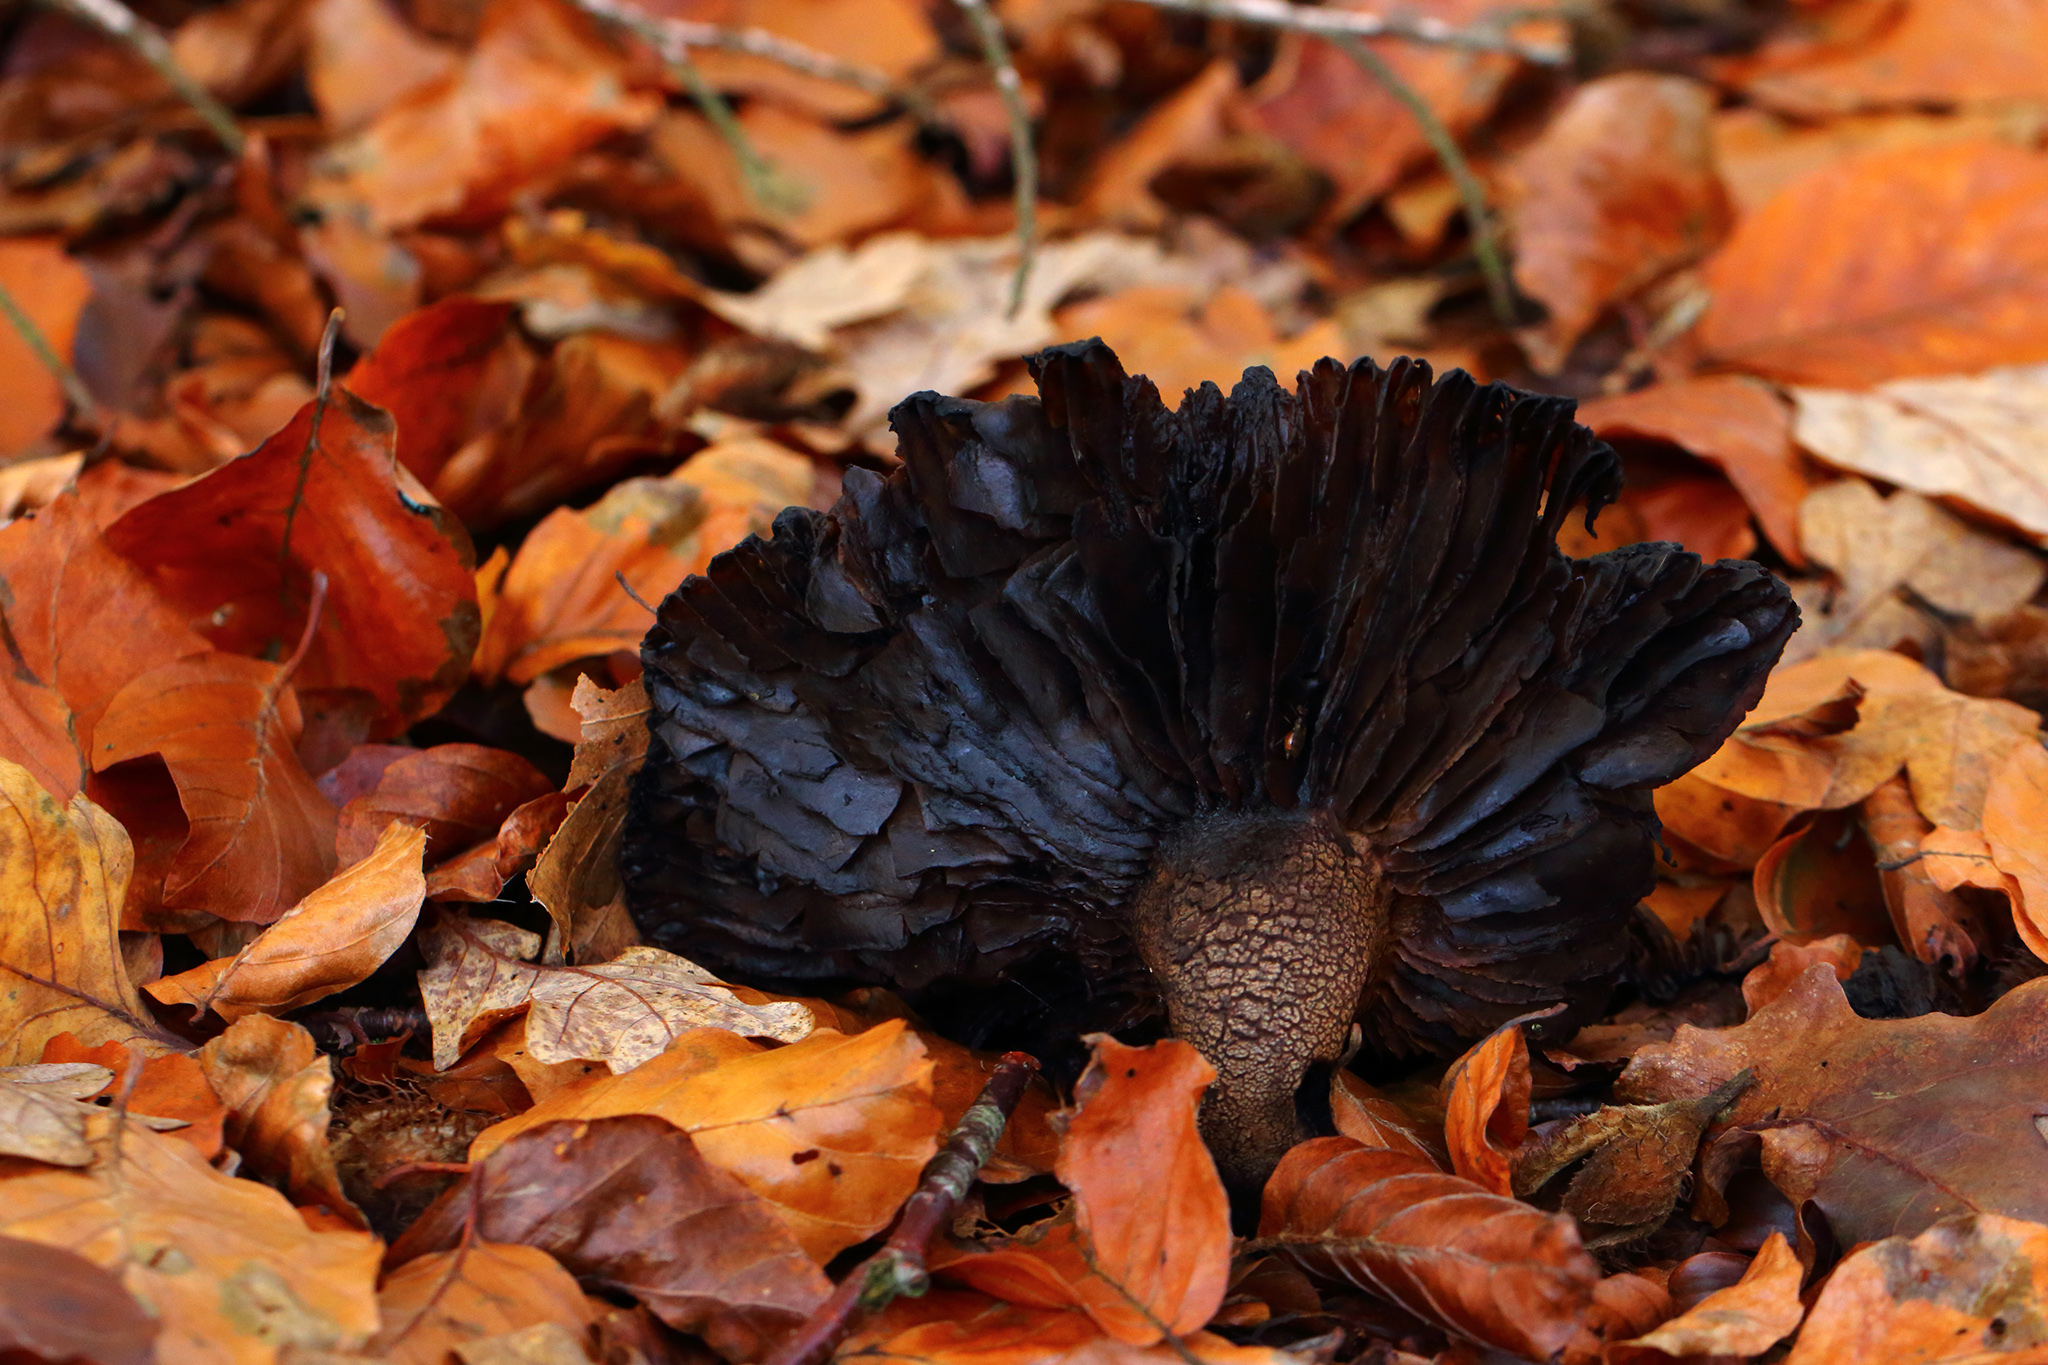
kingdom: Fungi
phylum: Basidiomycota
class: Agaricomycetes
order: Russulales
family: Russulaceae
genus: Russula
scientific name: Russula adusta
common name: Winecork brittlegill
